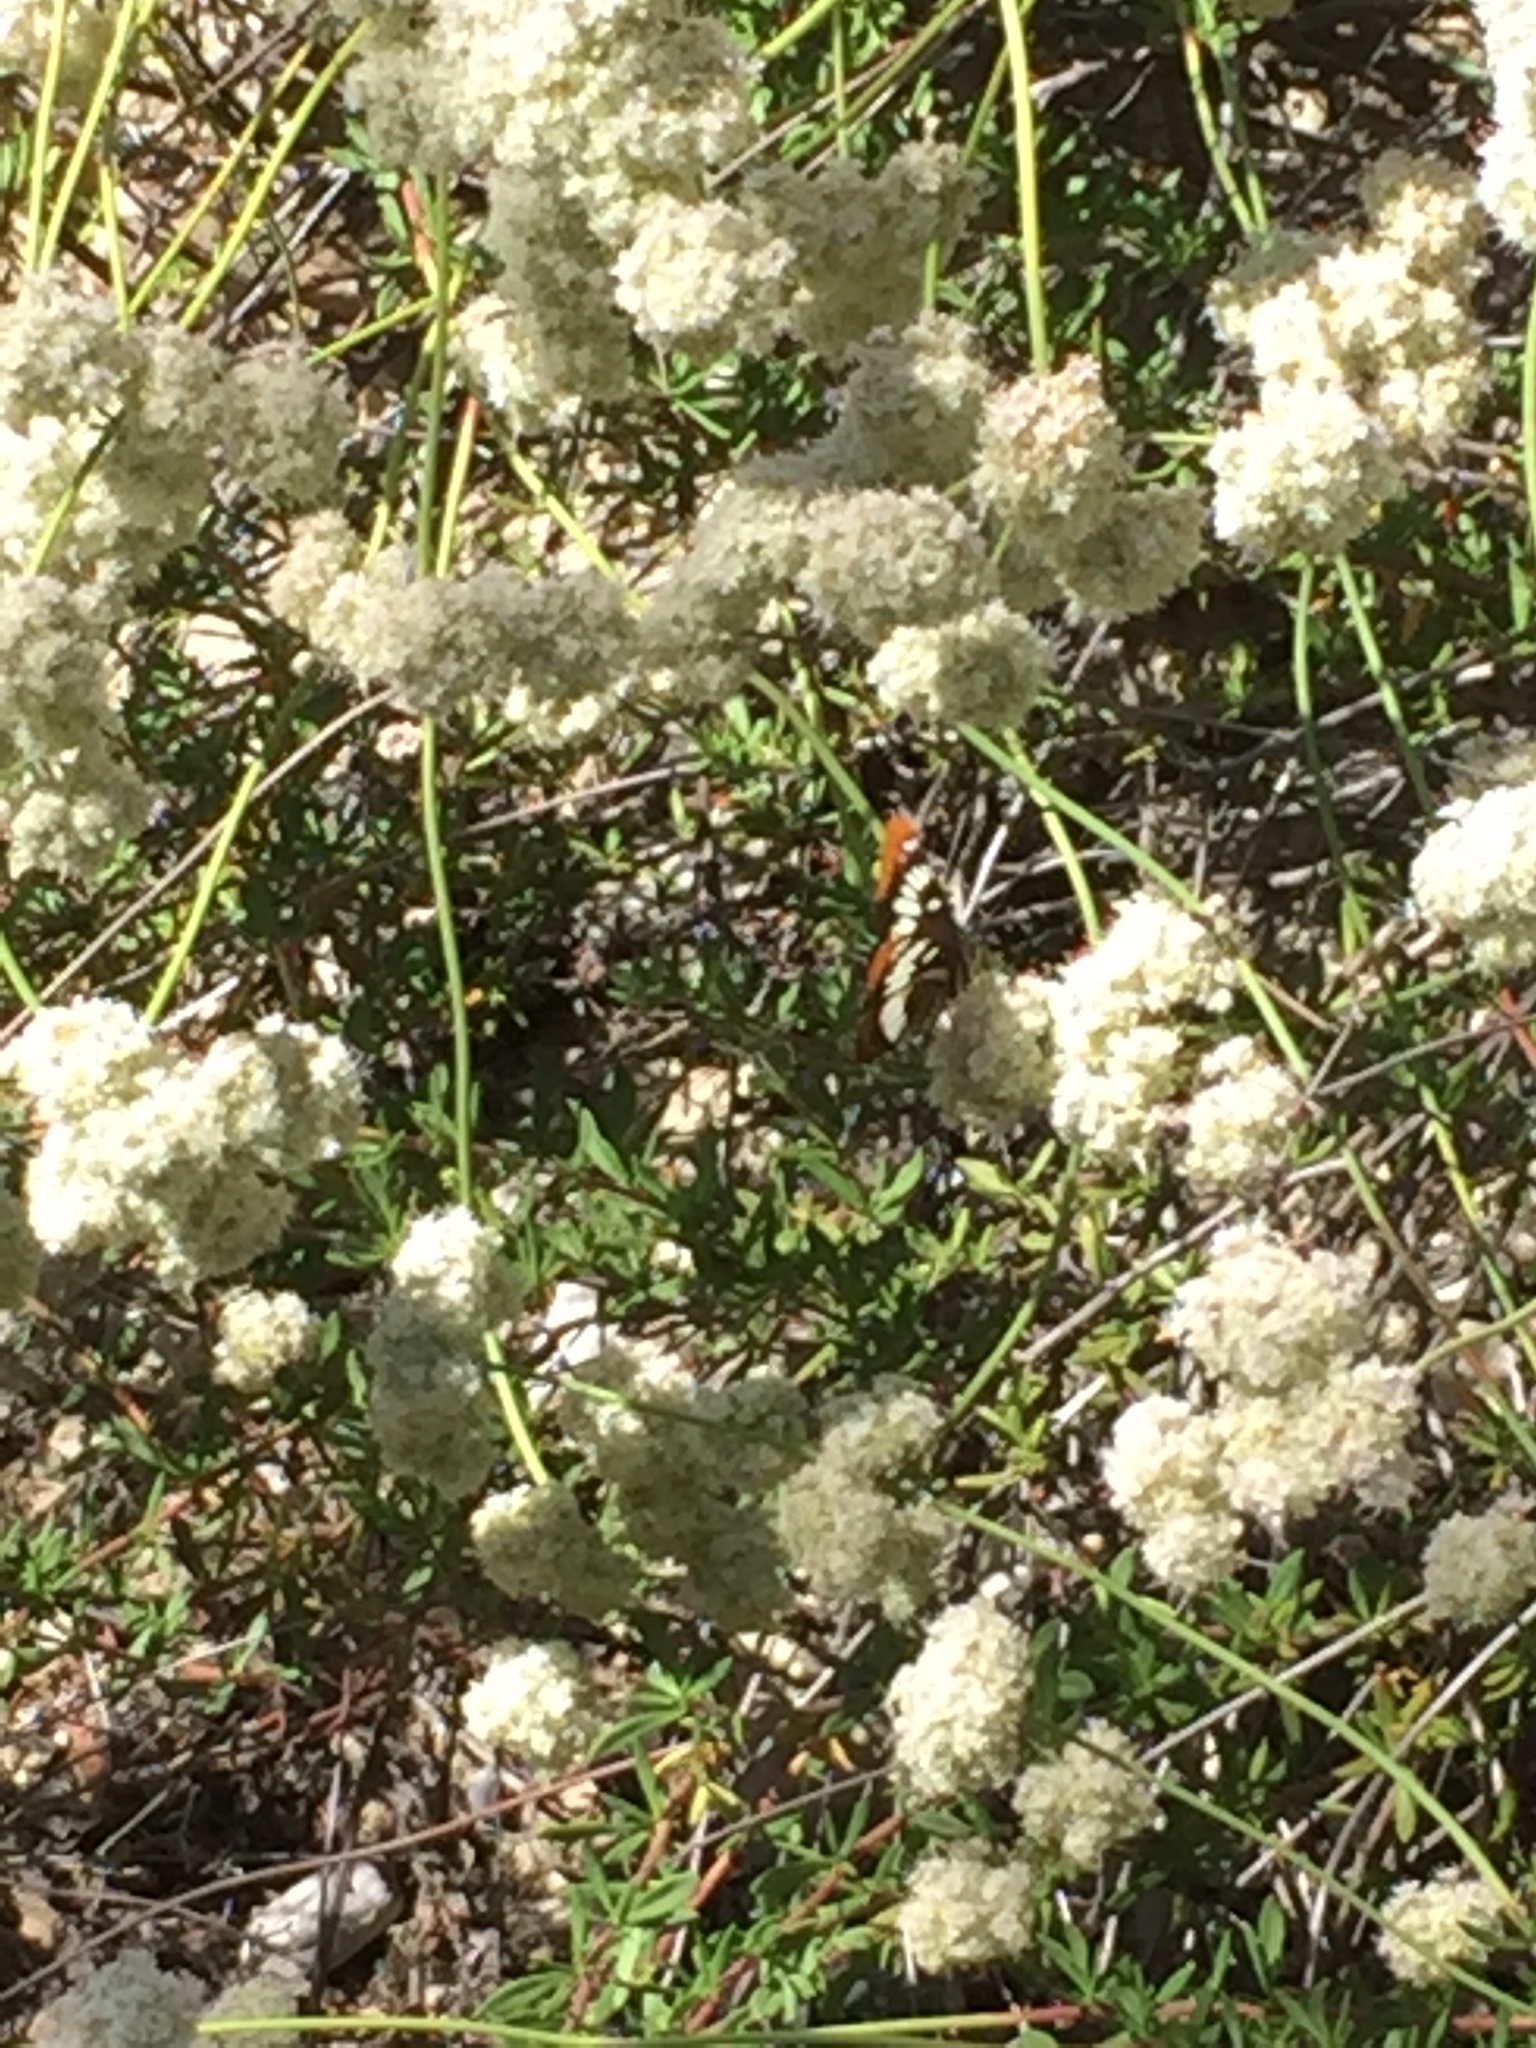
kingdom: Plantae
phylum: Tracheophyta
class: Magnoliopsida
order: Caryophyllales
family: Polygonaceae
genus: Eriogonum
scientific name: Eriogonum fasciculatum
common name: California wild buckwheat
